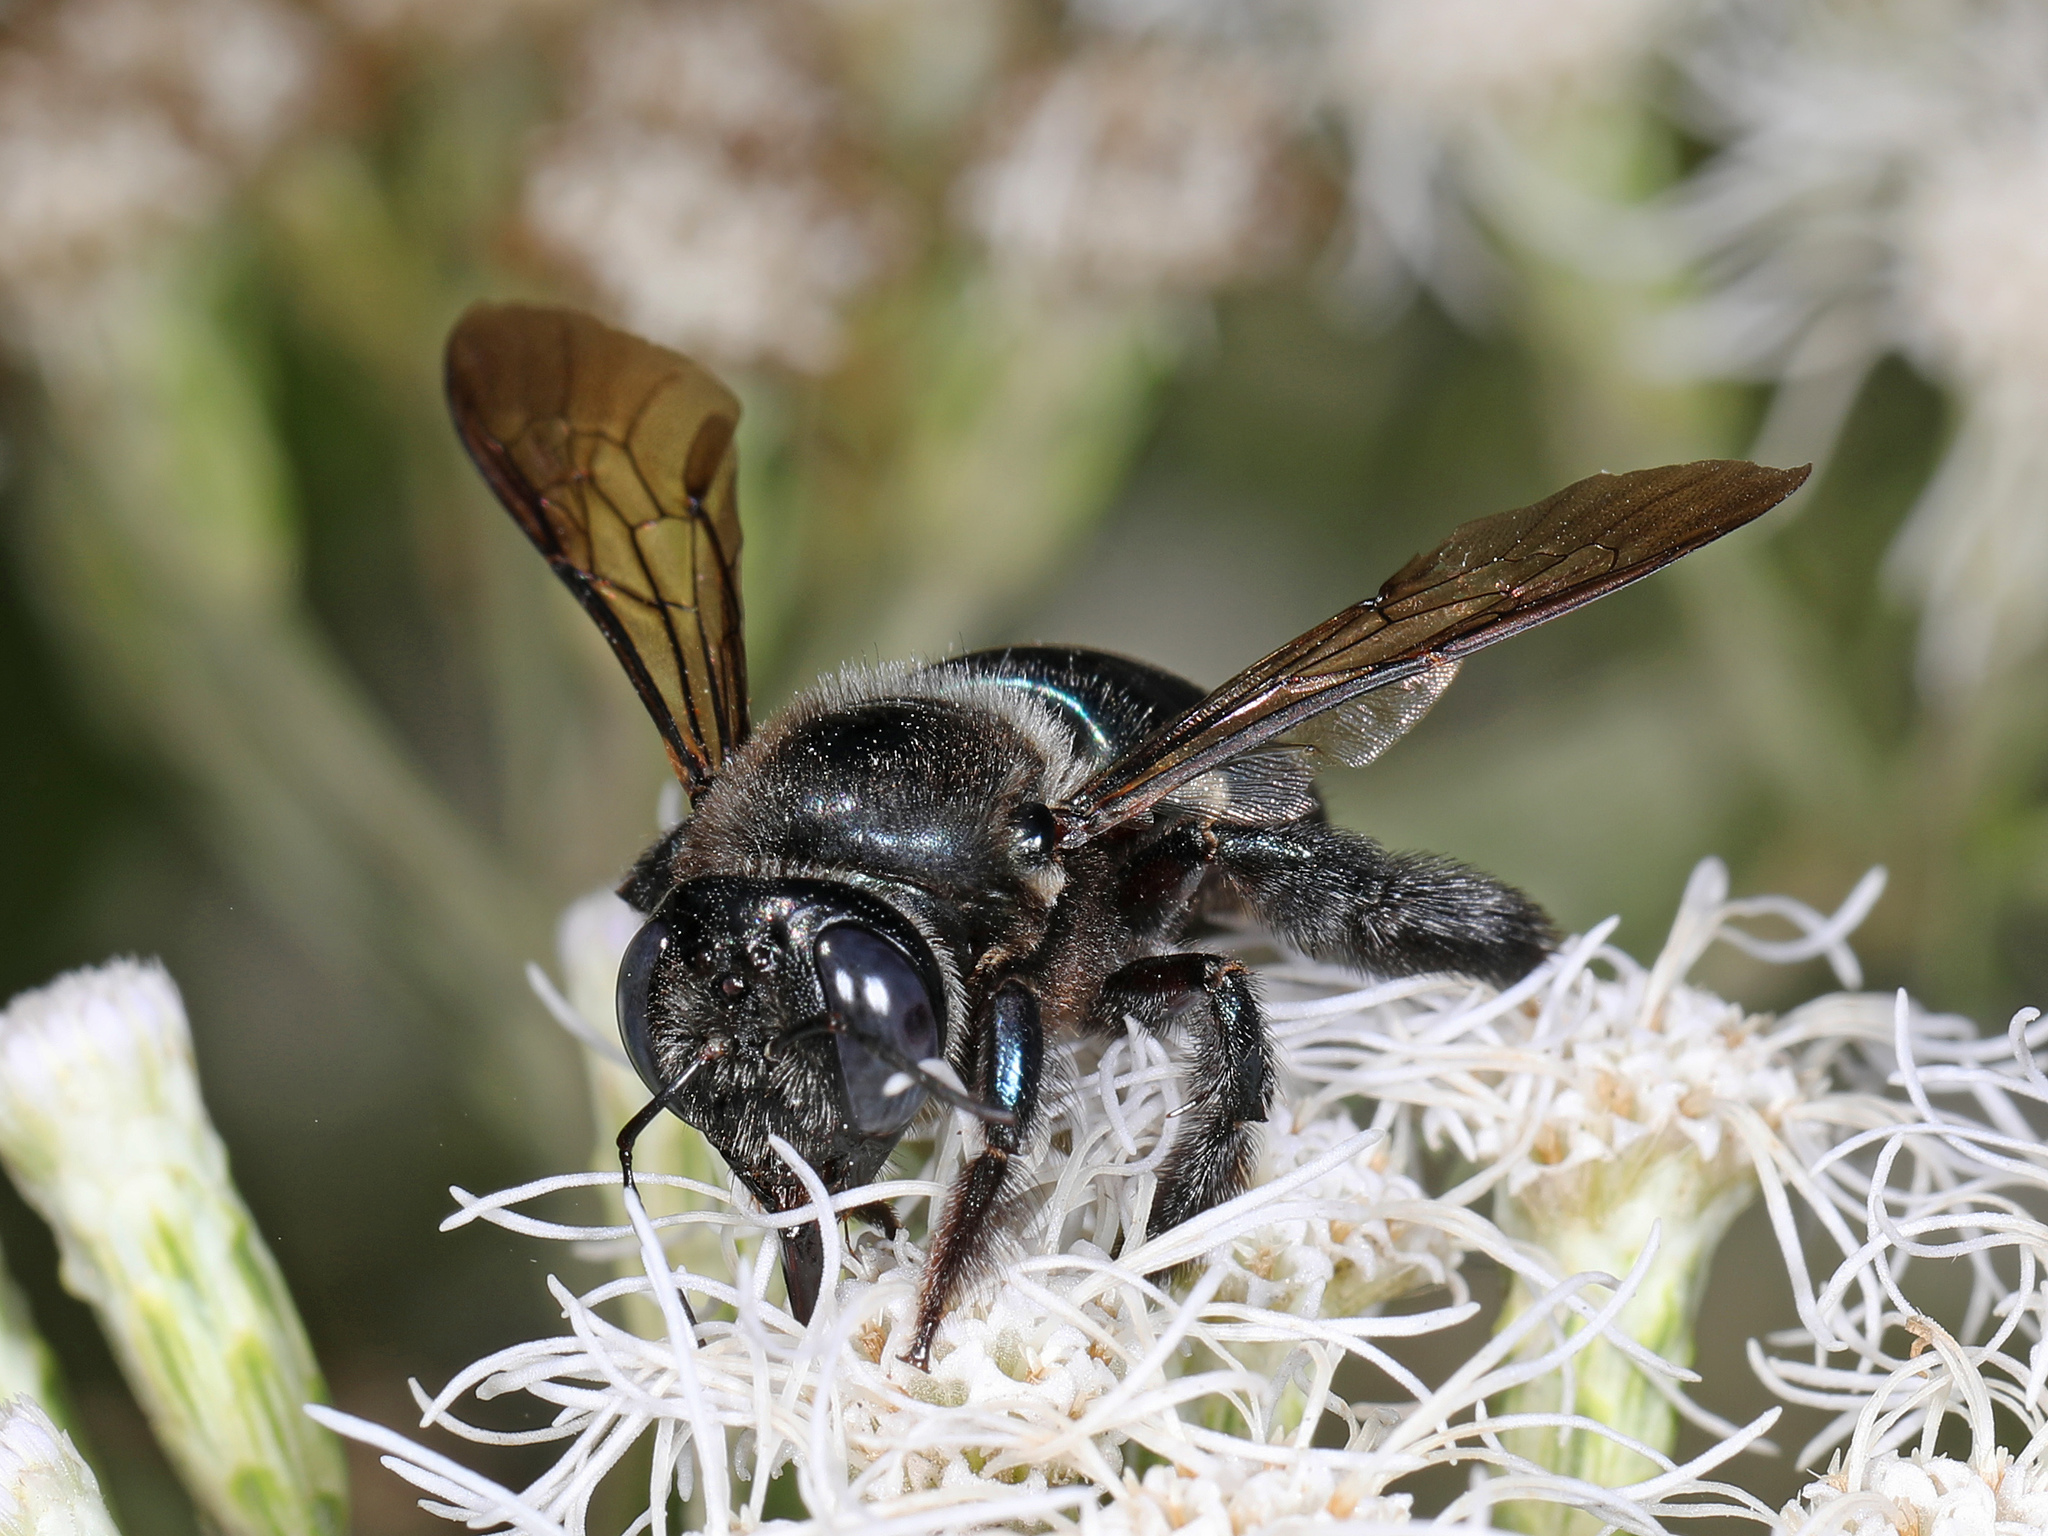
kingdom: Animalia
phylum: Arthropoda
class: Insecta
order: Hymenoptera
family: Apidae
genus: Xylocopa
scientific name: Xylocopa micans
